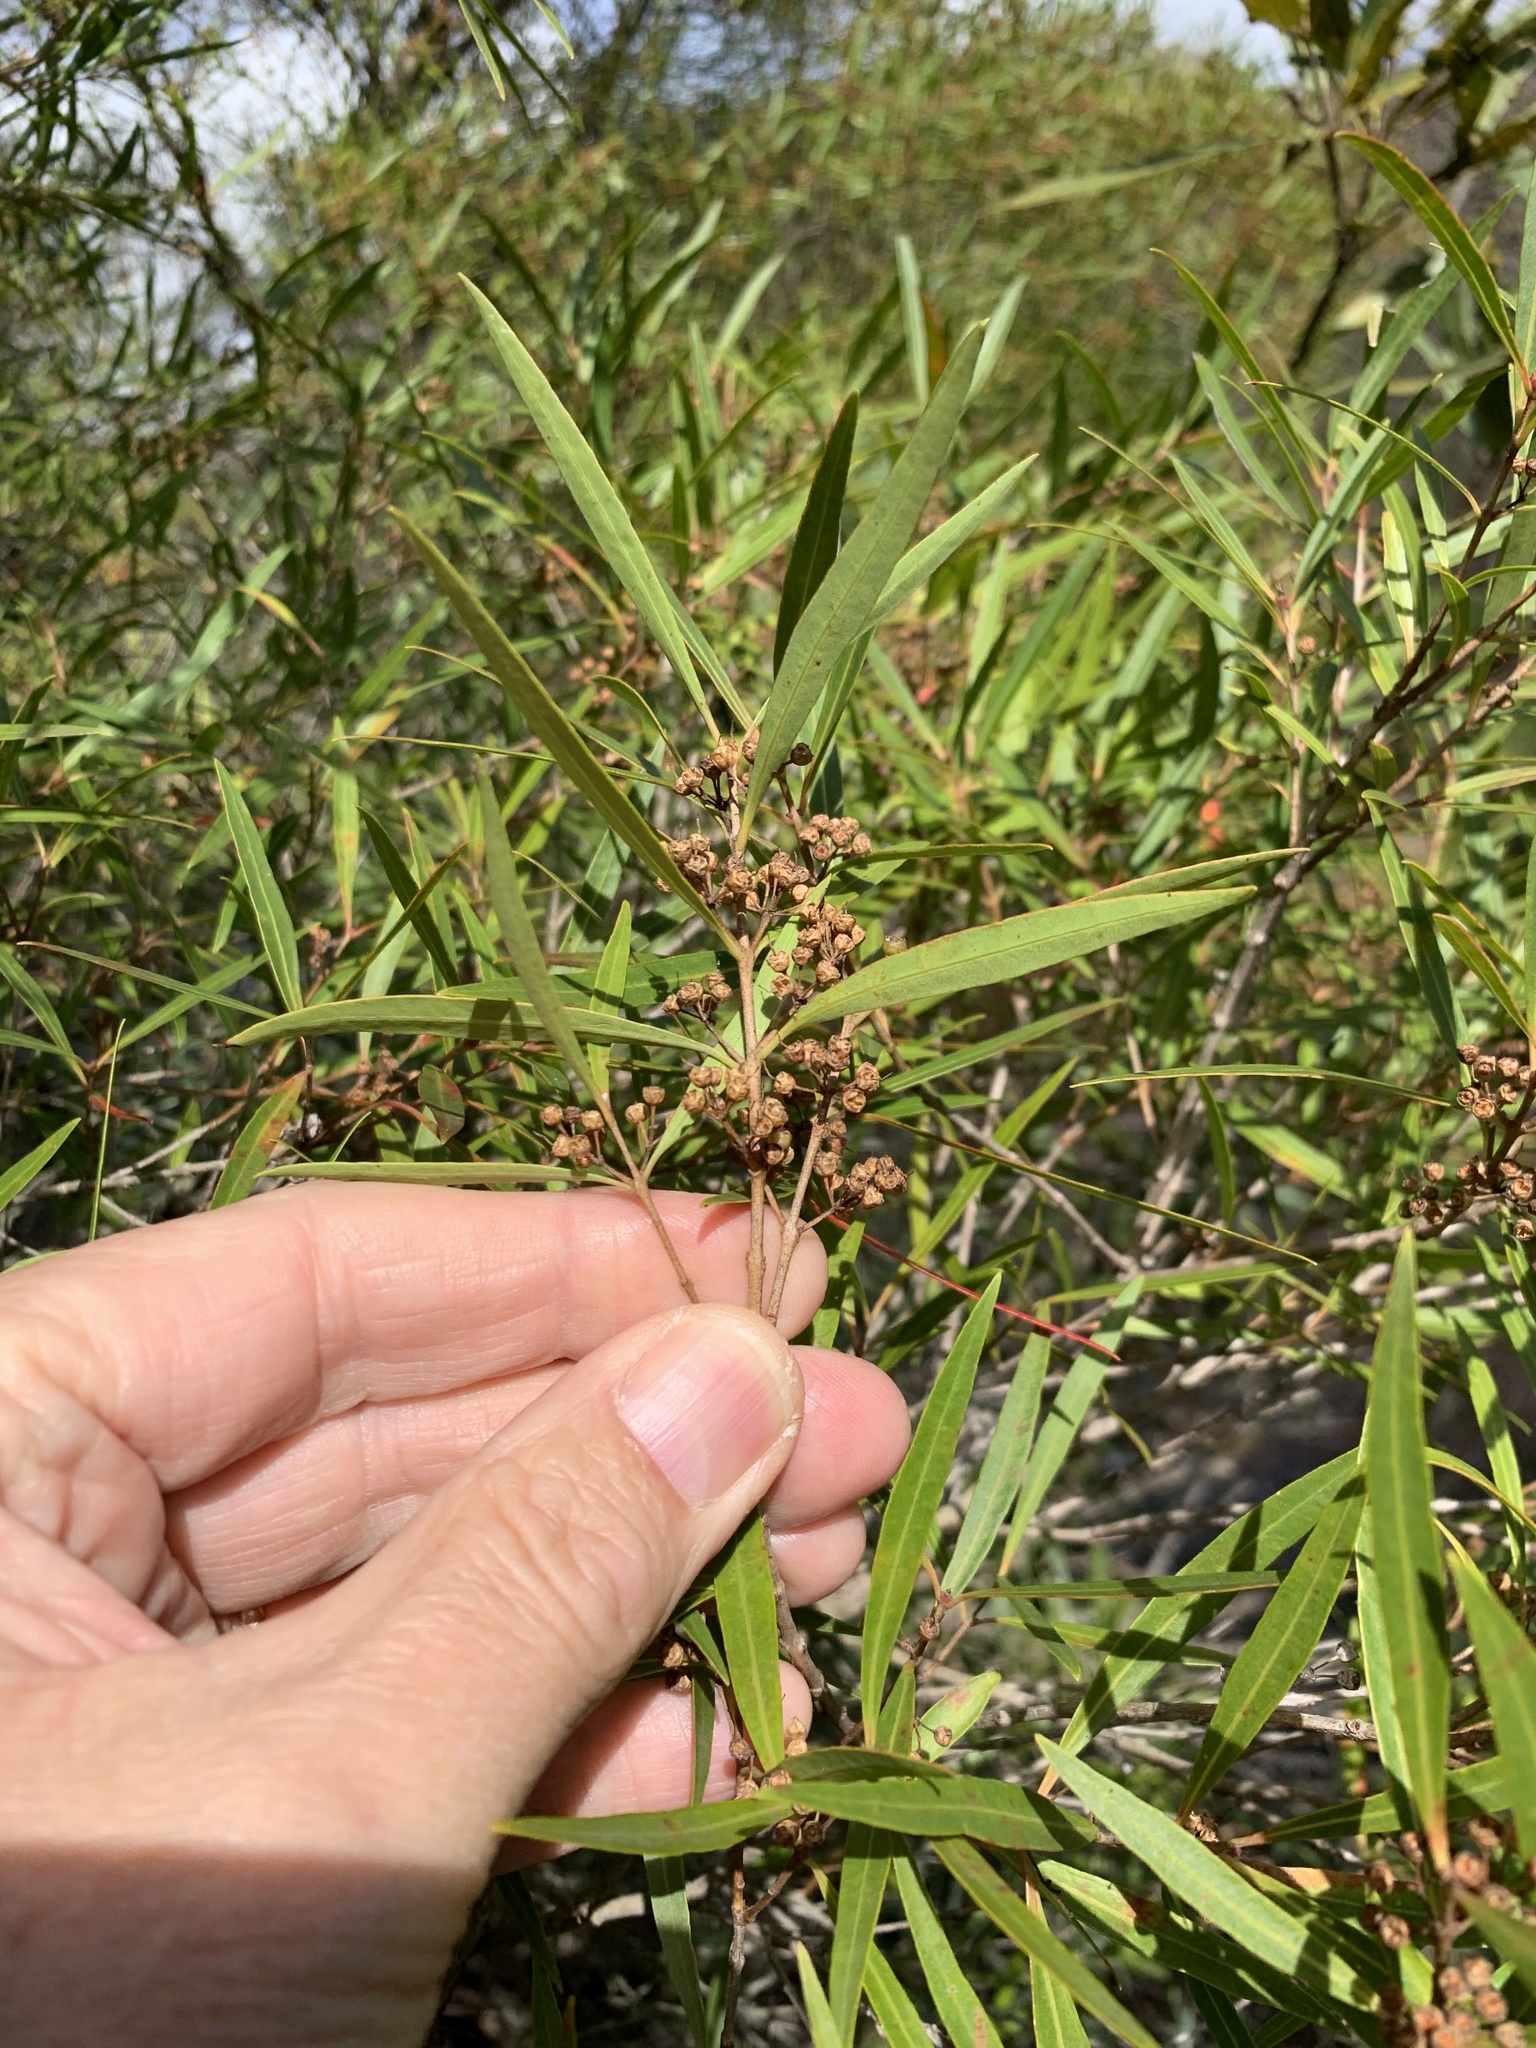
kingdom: Plantae
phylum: Tracheophyta
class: Magnoliopsida
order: Myrtales
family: Myrtaceae
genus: Callistemon
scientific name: Callistemon lanceolatus
